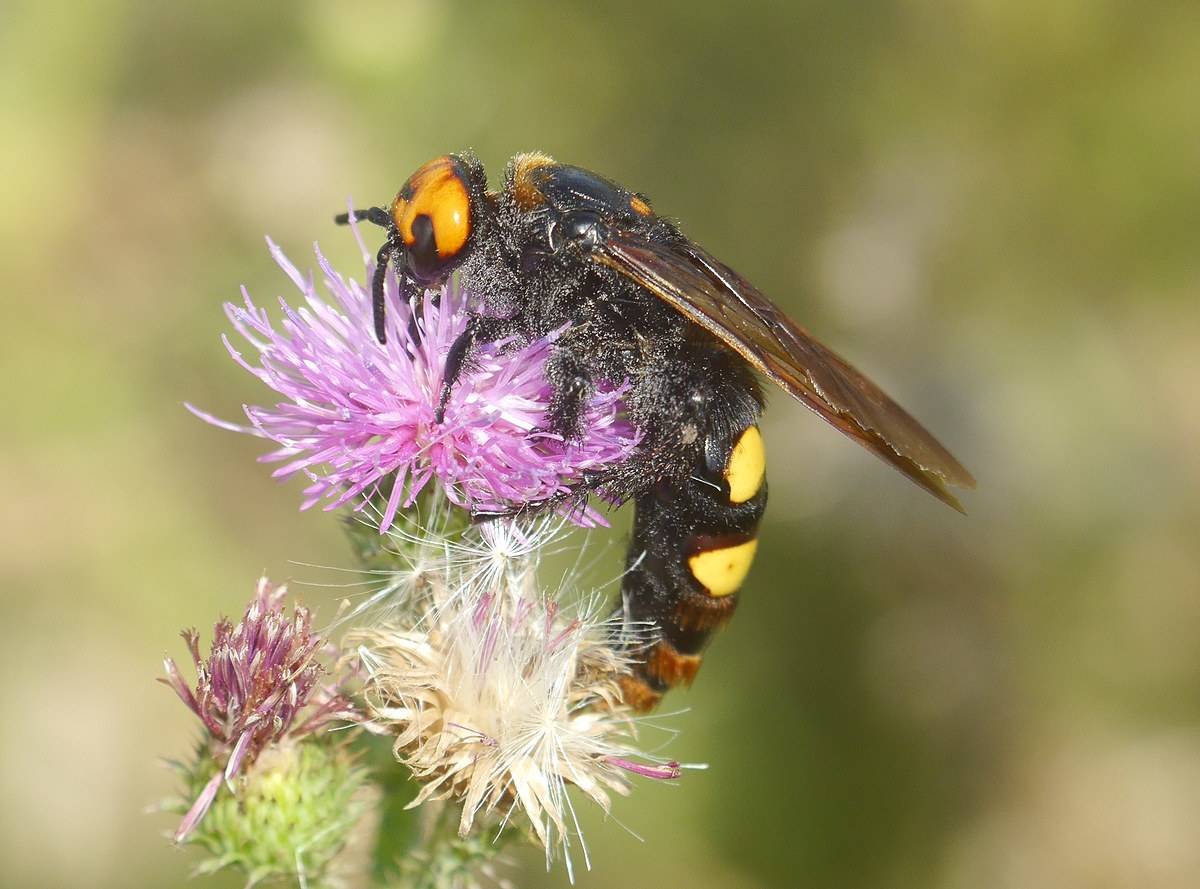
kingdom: Animalia
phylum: Arthropoda
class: Insecta
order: Hymenoptera
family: Scoliidae
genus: Megascolia
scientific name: Megascolia maculata
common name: Mammoth wasp
